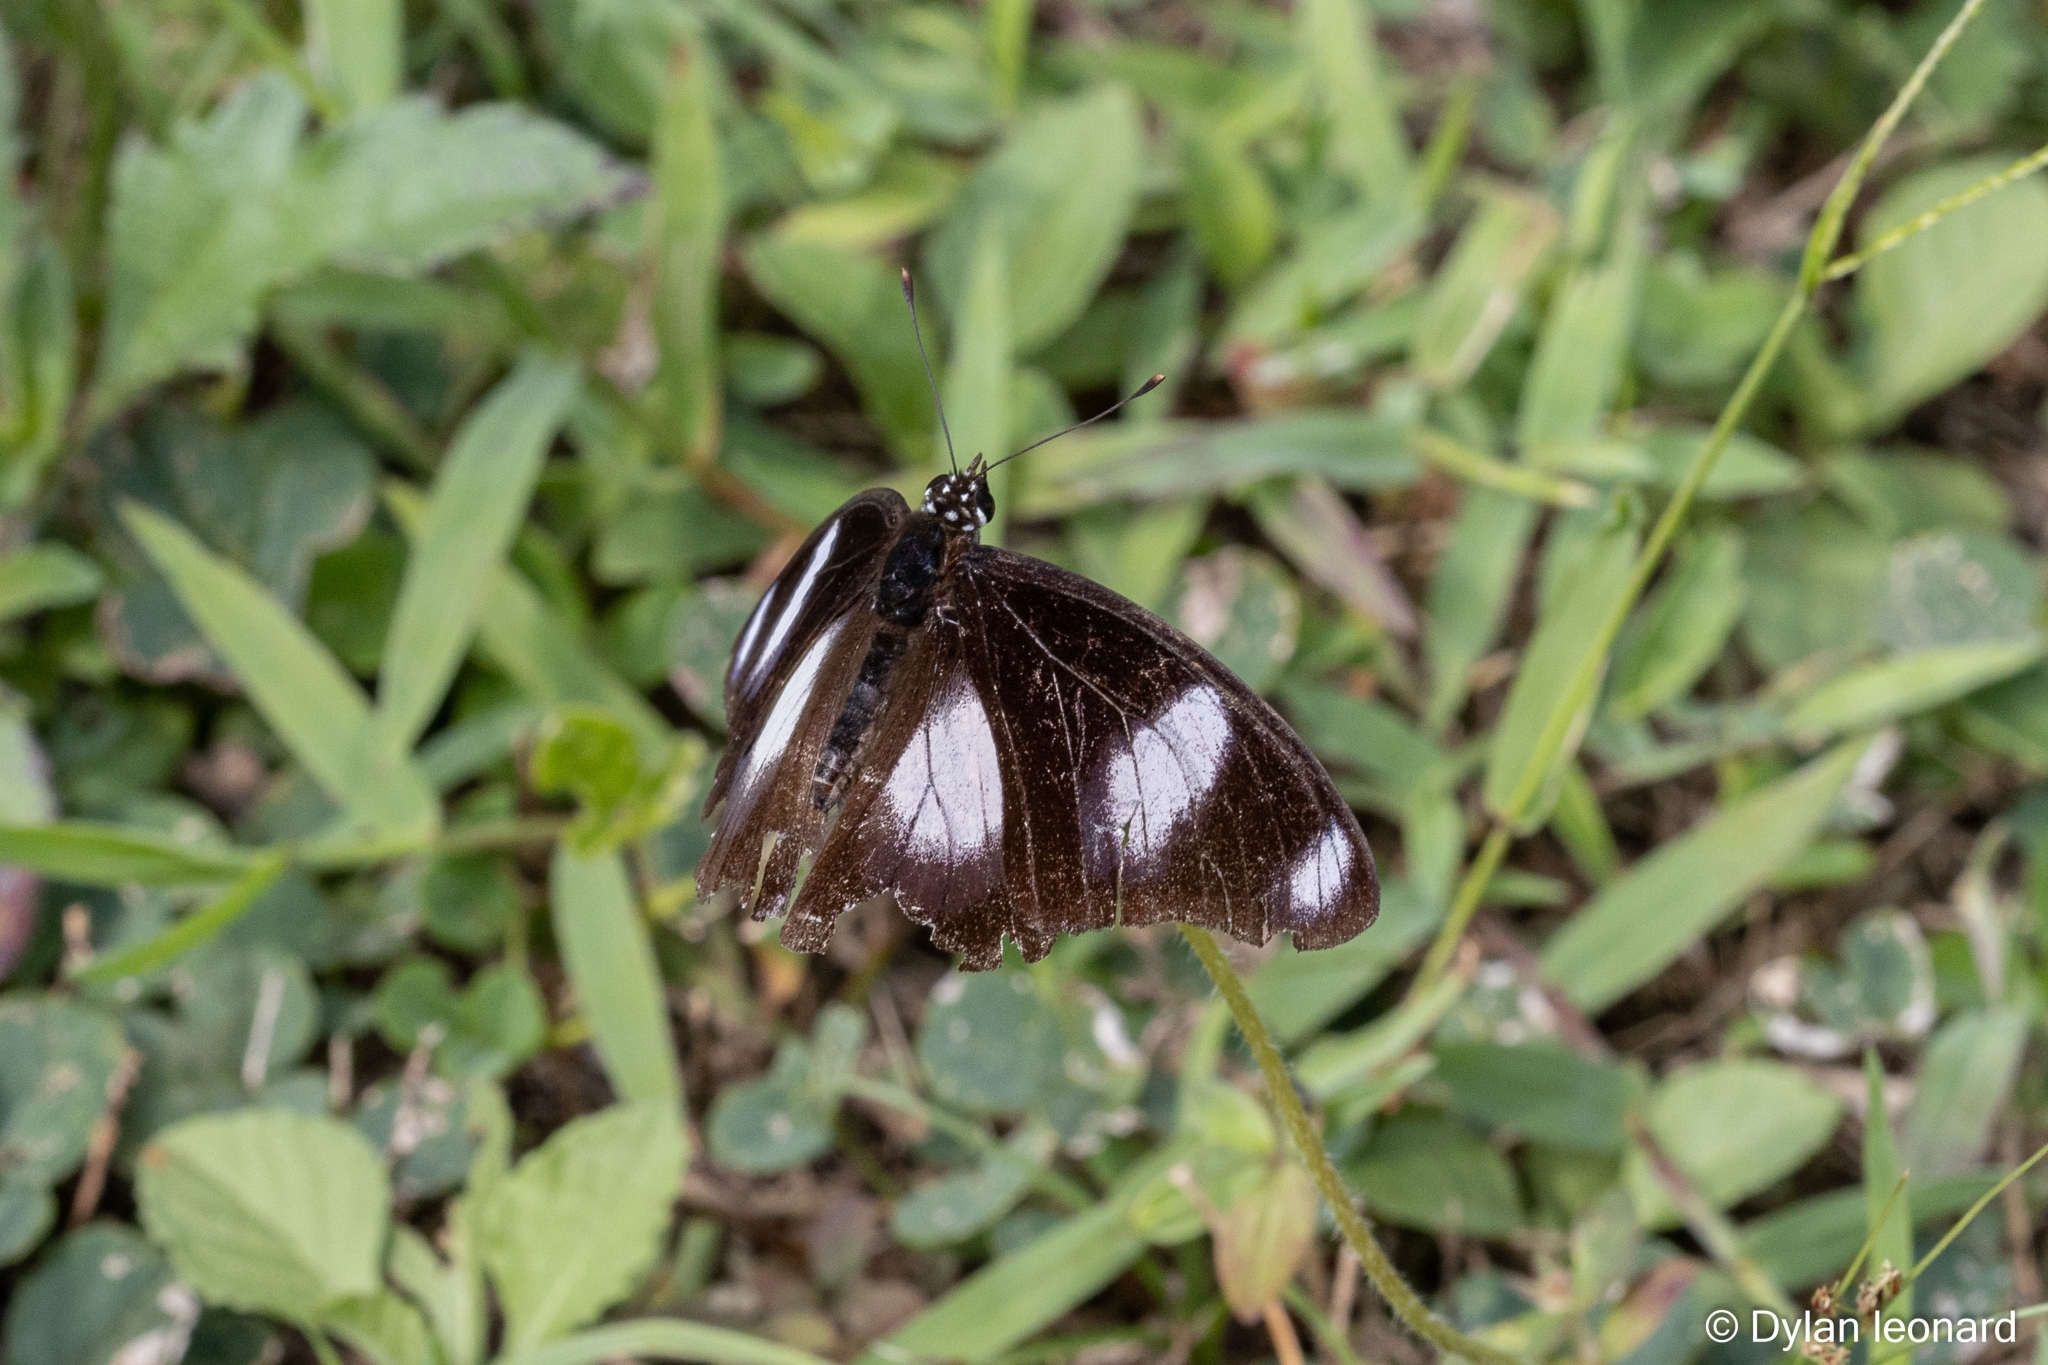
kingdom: Animalia
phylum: Arthropoda
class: Insecta
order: Lepidoptera
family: Nymphalidae
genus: Hypolimnas
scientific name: Hypolimnas misippus
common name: False plain tiger
